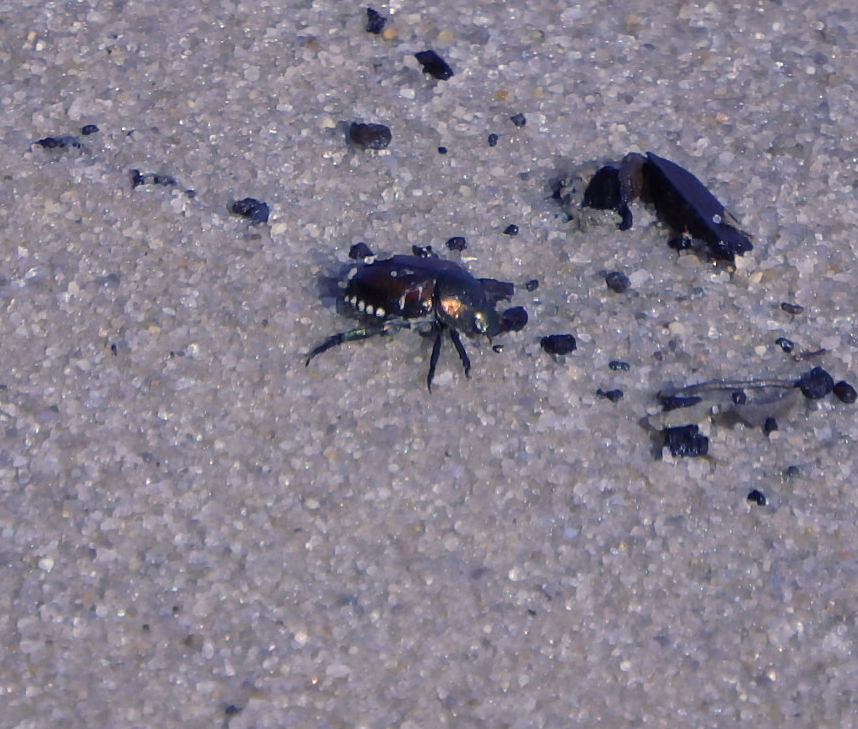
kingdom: Animalia
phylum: Arthropoda
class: Insecta
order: Coleoptera
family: Scarabaeidae
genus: Popillia
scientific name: Popillia japonica
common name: Japanese beetle
